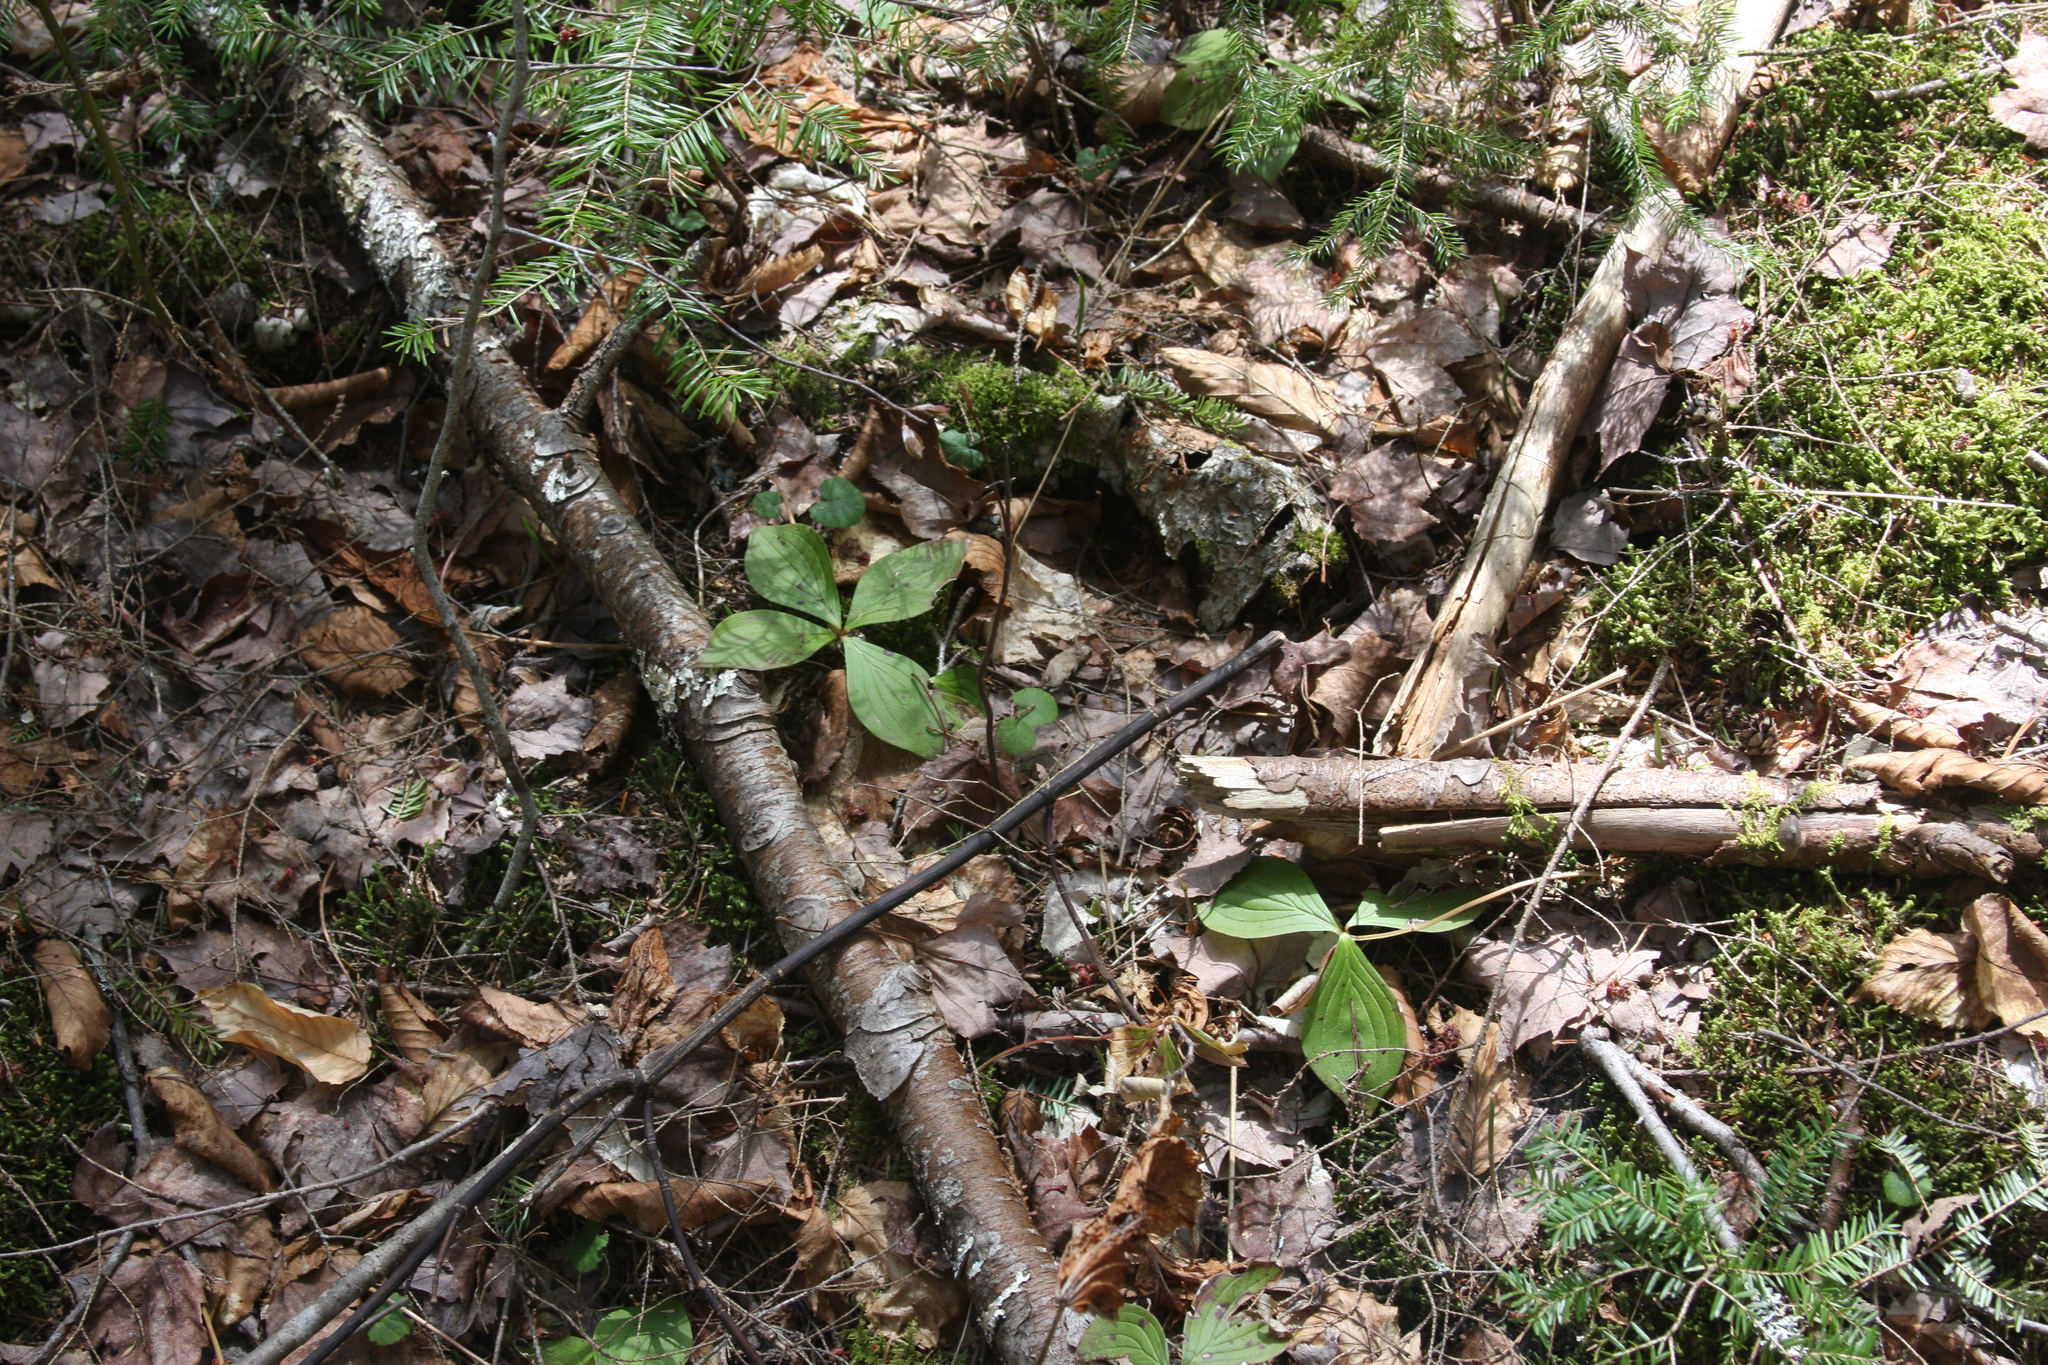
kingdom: Plantae
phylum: Tracheophyta
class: Magnoliopsida
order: Cornales
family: Cornaceae
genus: Cornus
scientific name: Cornus canadensis
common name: Creeping dogwood
